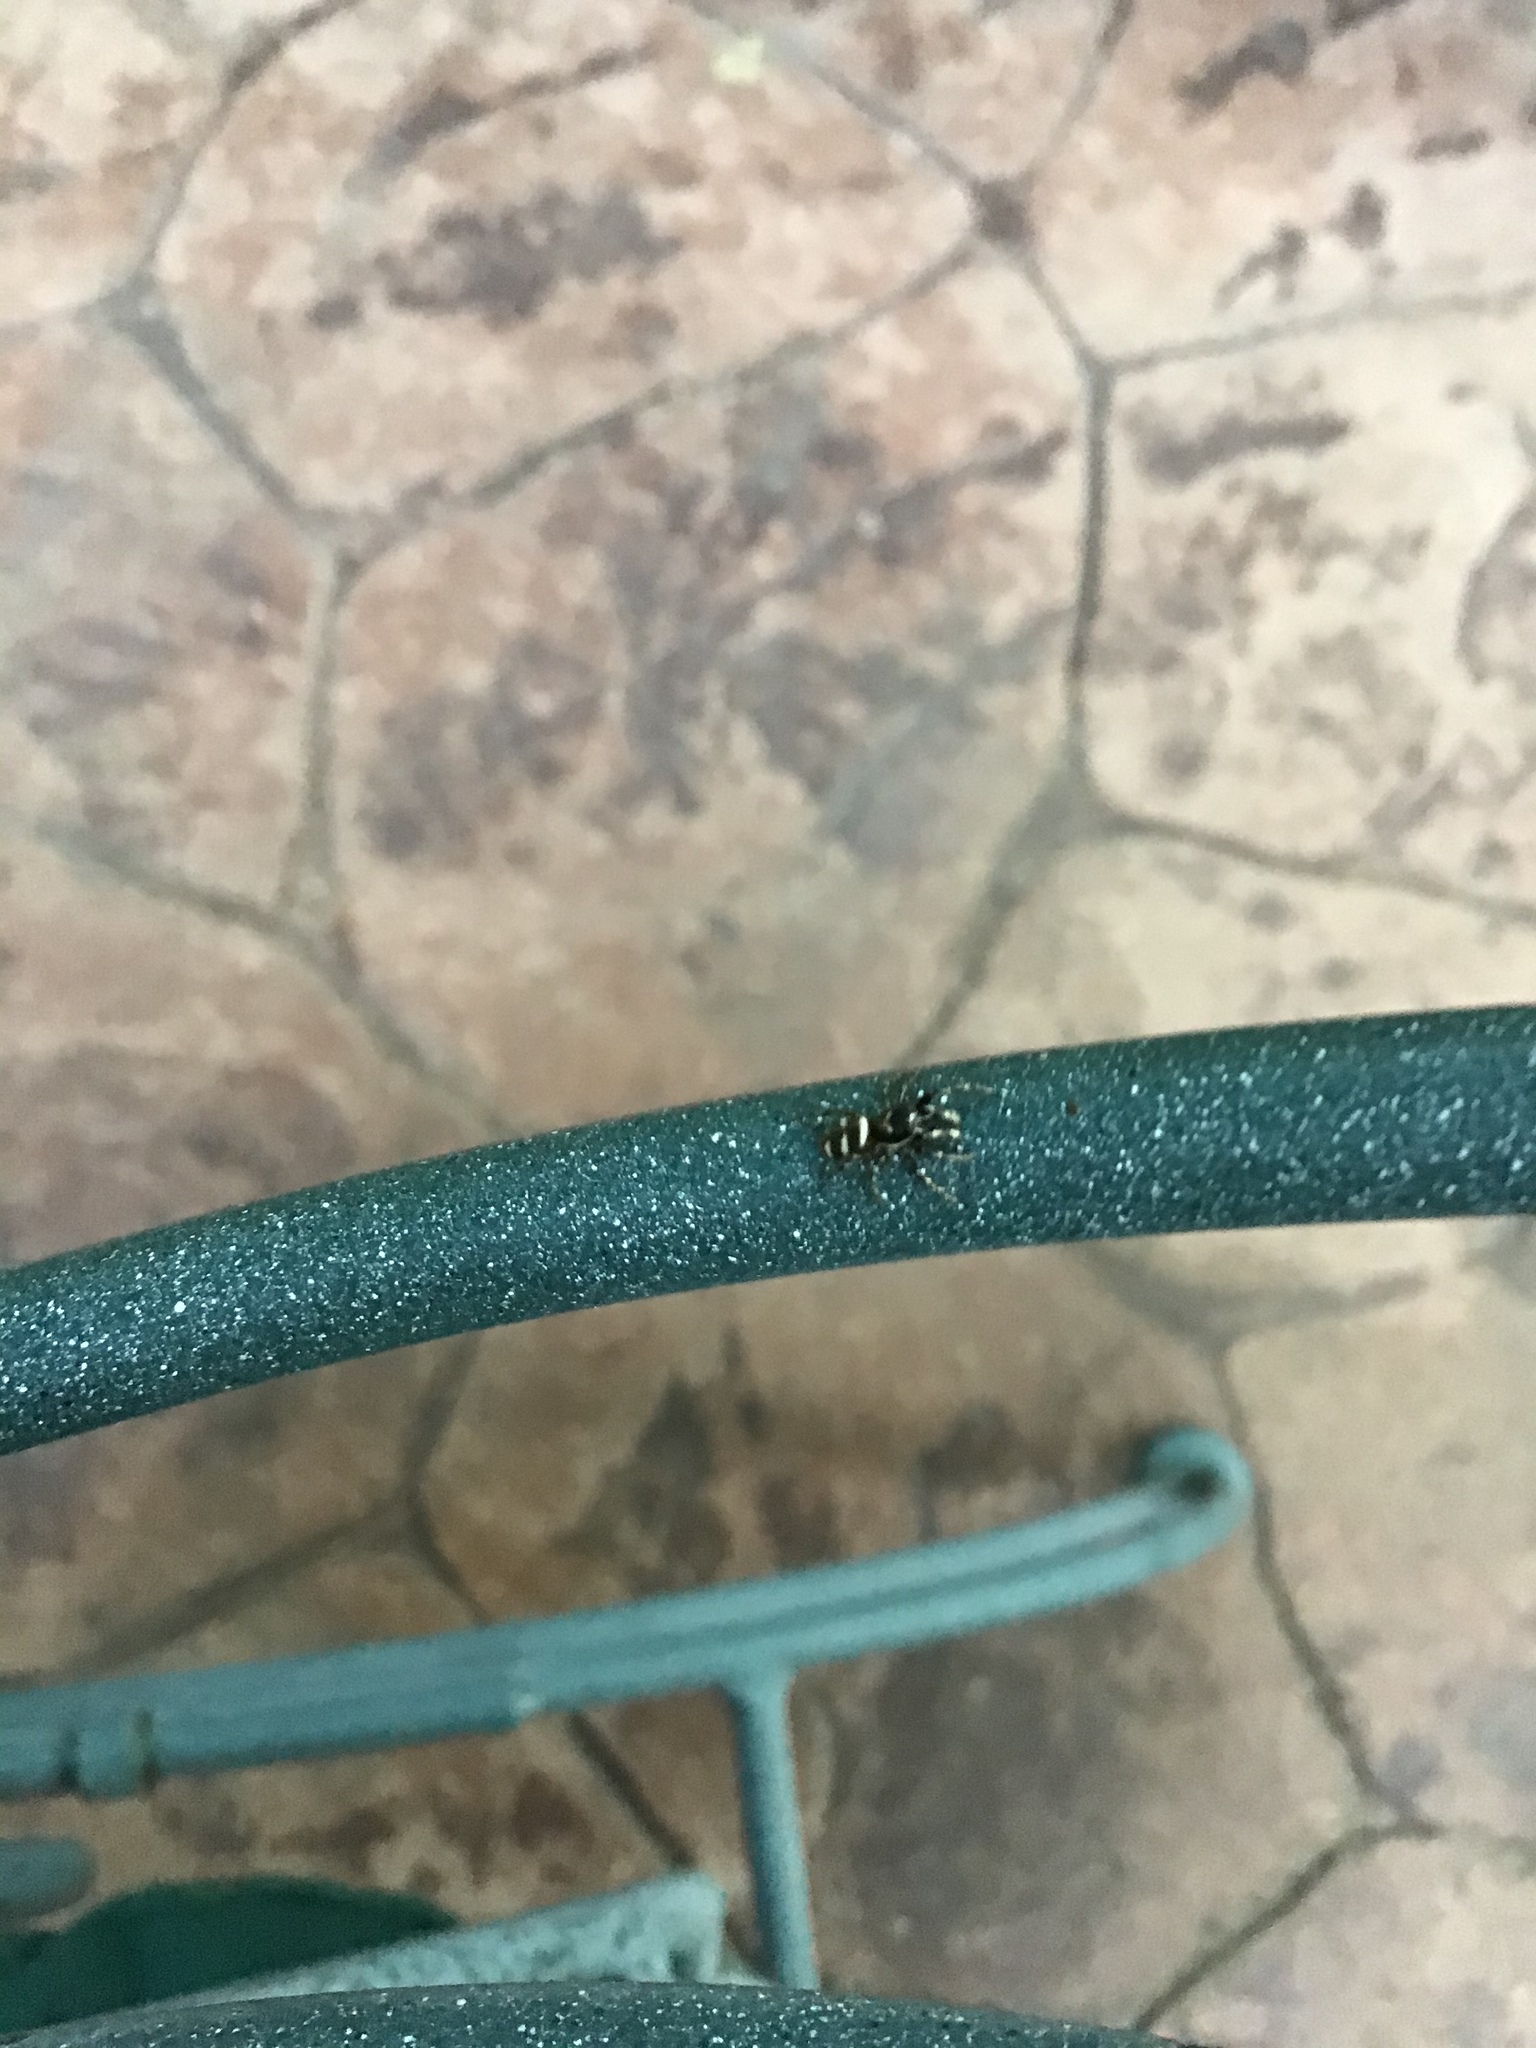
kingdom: Animalia
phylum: Arthropoda
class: Arachnida
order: Araneae
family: Salticidae
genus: Salticus
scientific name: Salticus scenicus
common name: Zebra jumper
